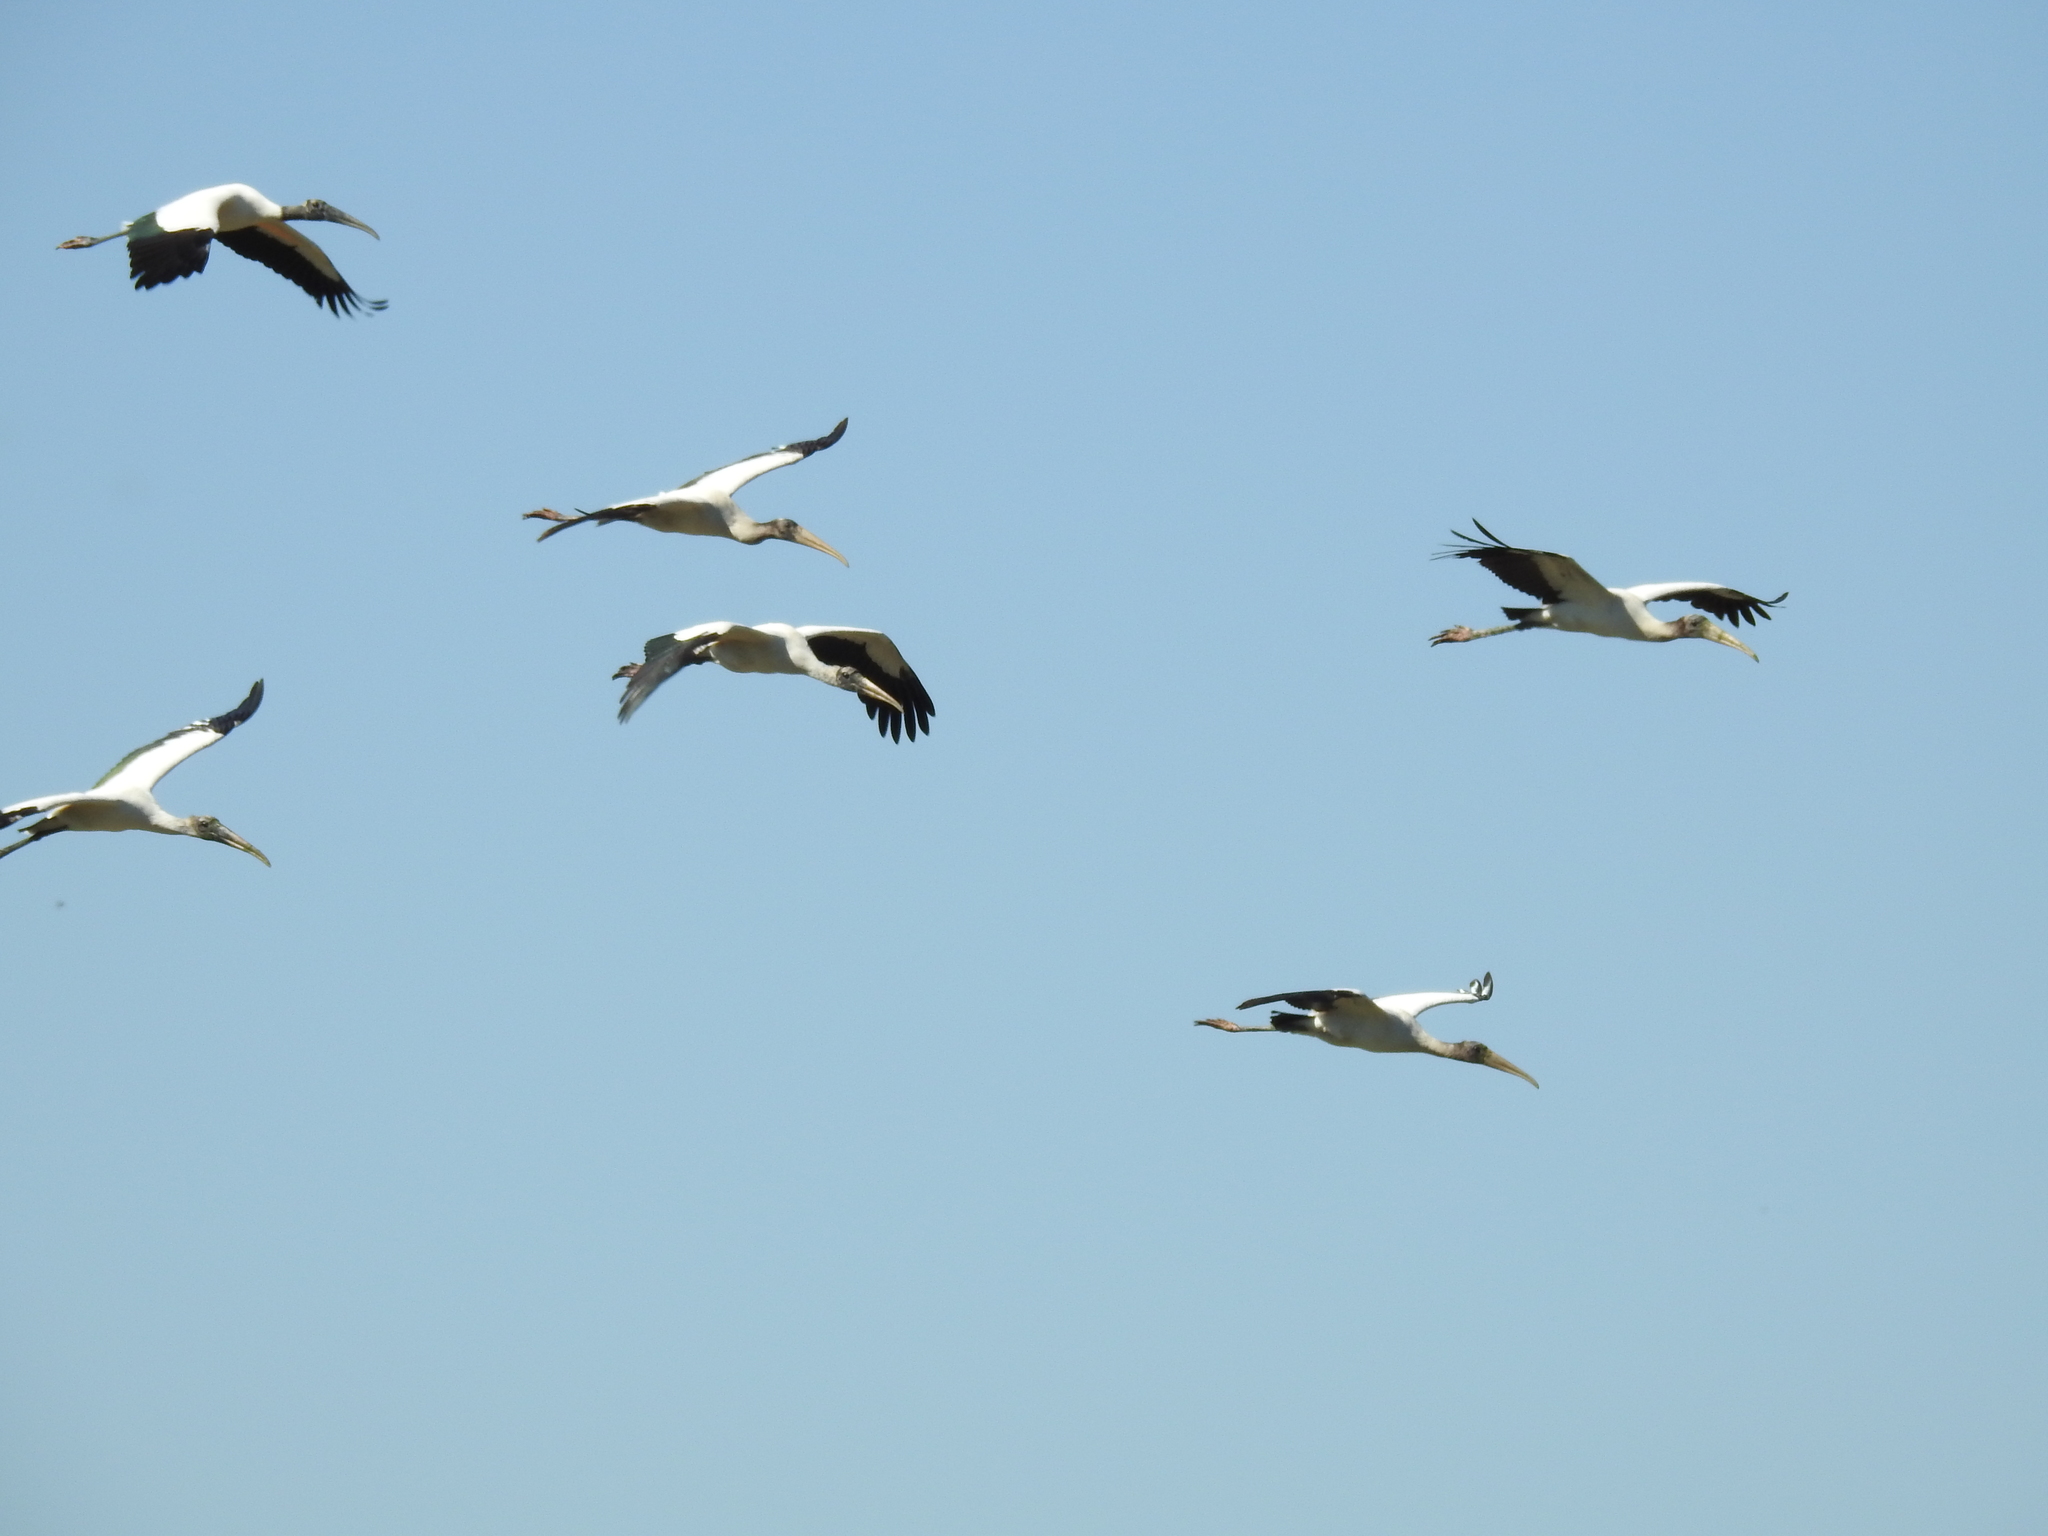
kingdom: Animalia
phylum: Chordata
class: Aves
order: Ciconiiformes
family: Ciconiidae
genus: Mycteria
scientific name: Mycteria americana
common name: Wood stork
